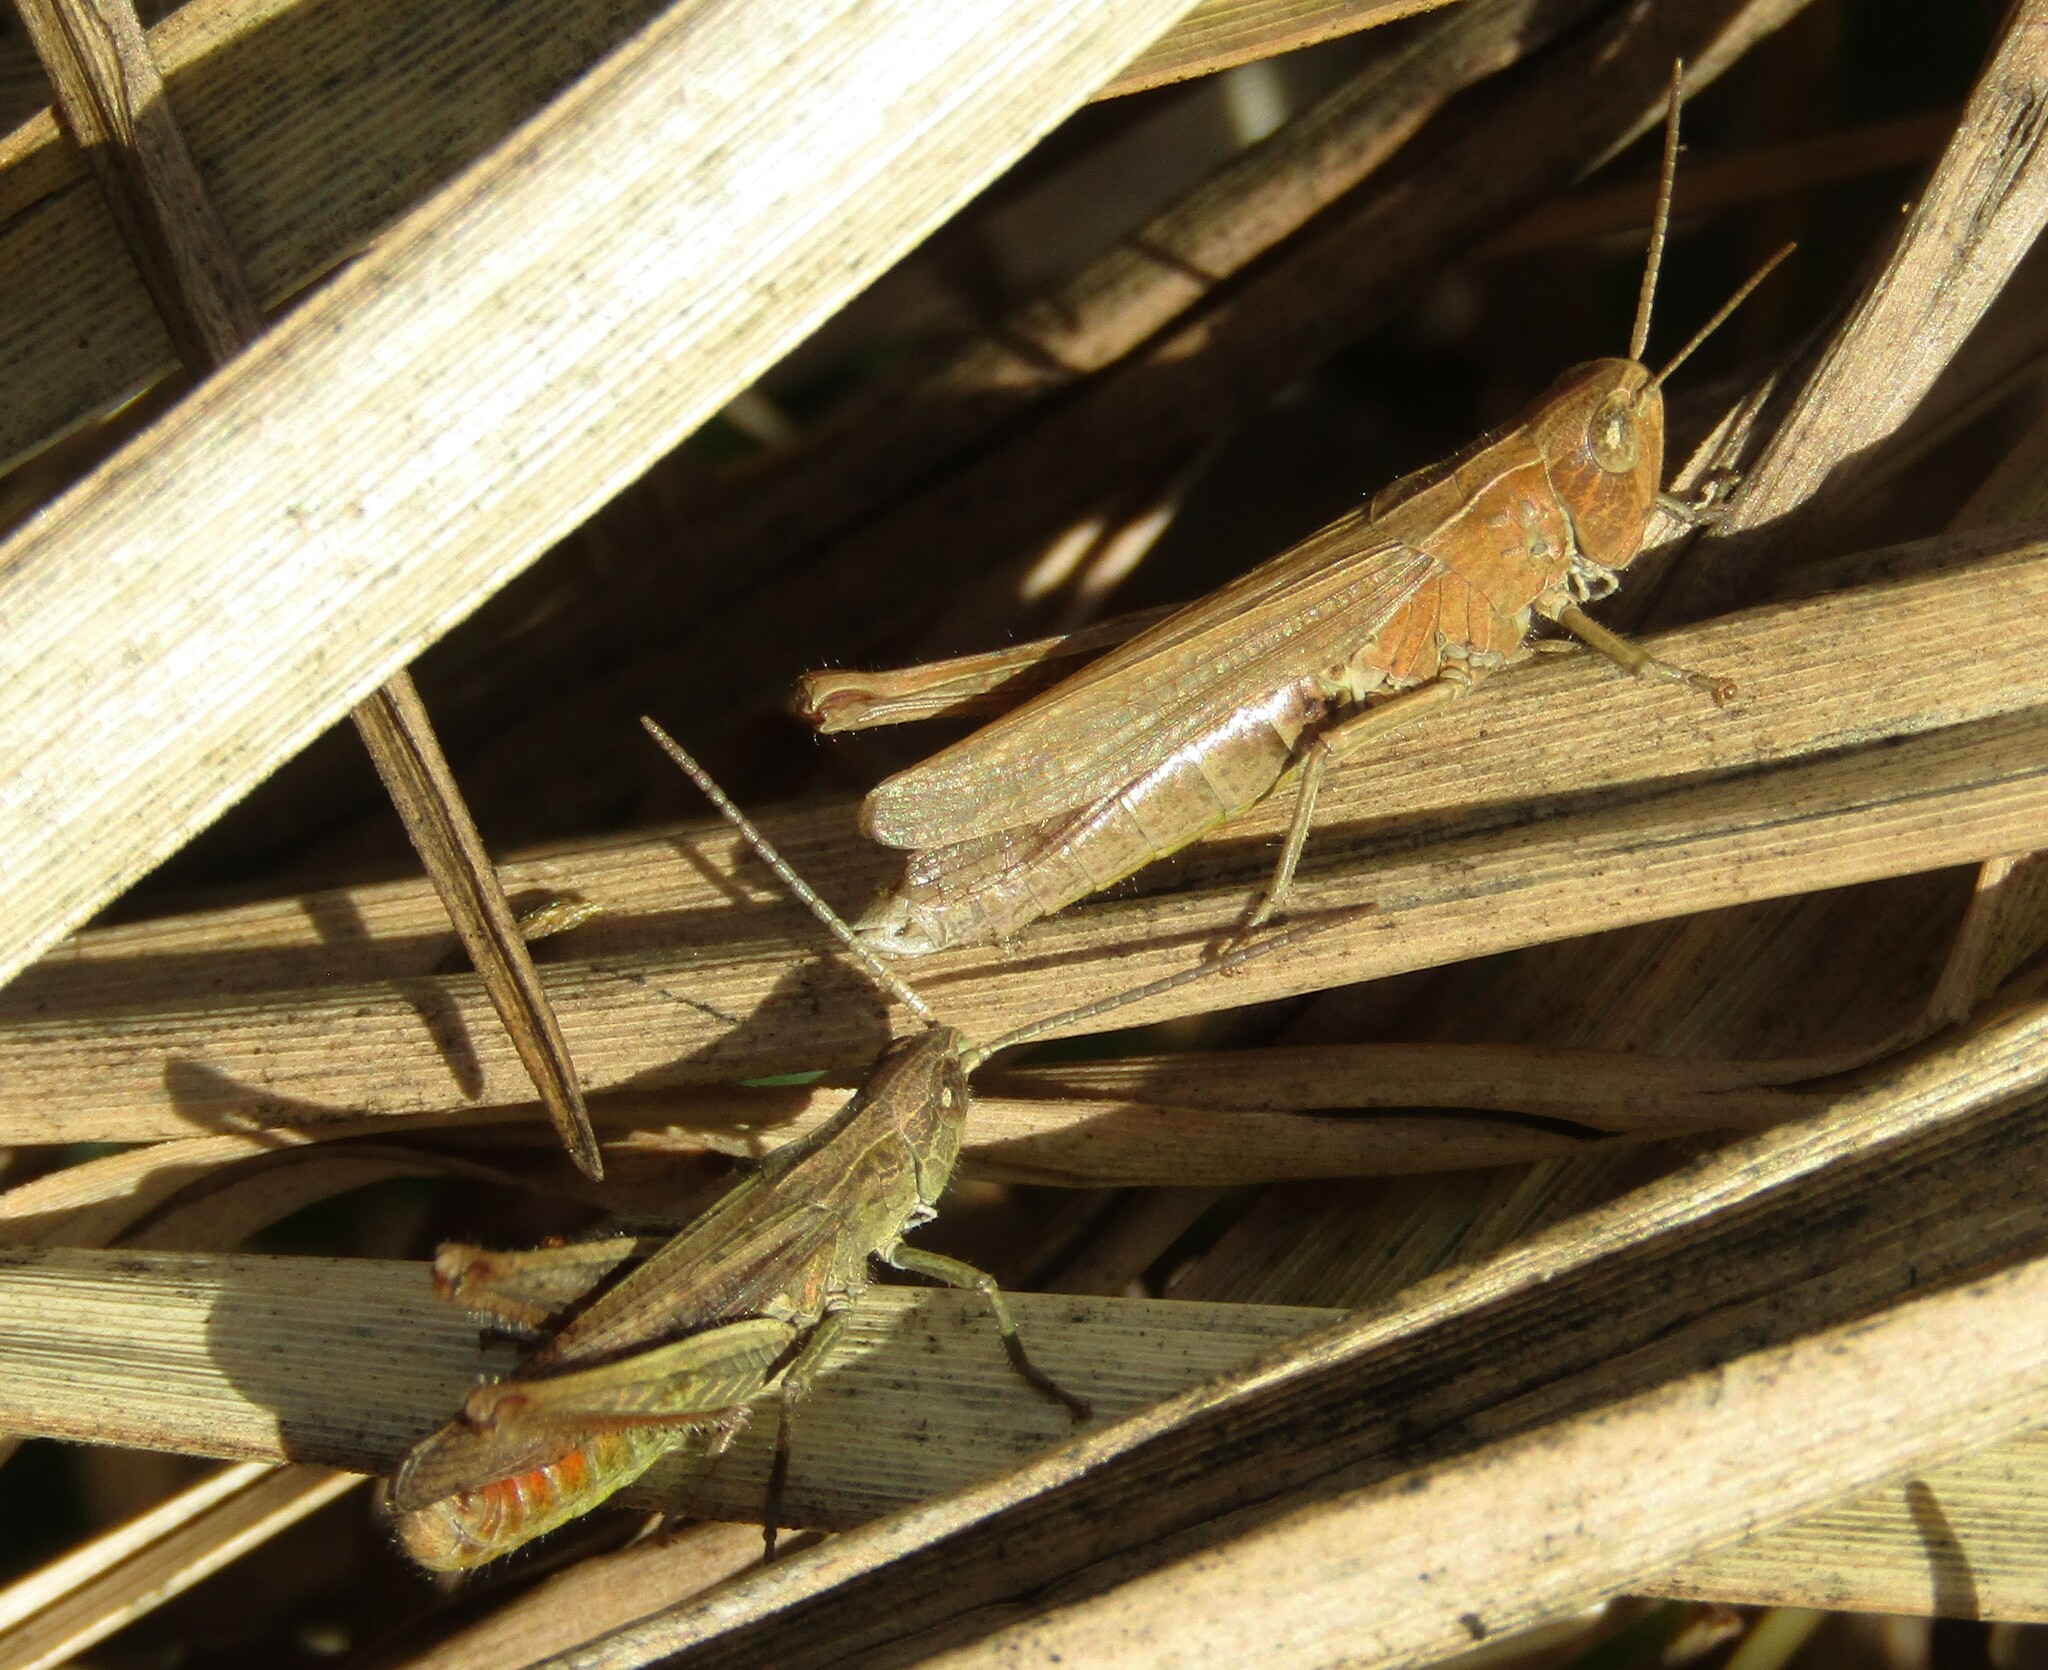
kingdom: Animalia
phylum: Arthropoda
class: Insecta
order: Orthoptera
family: Acrididae
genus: Chorthippus
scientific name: Chorthippus dorsatus
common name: Steppe grasshopper
